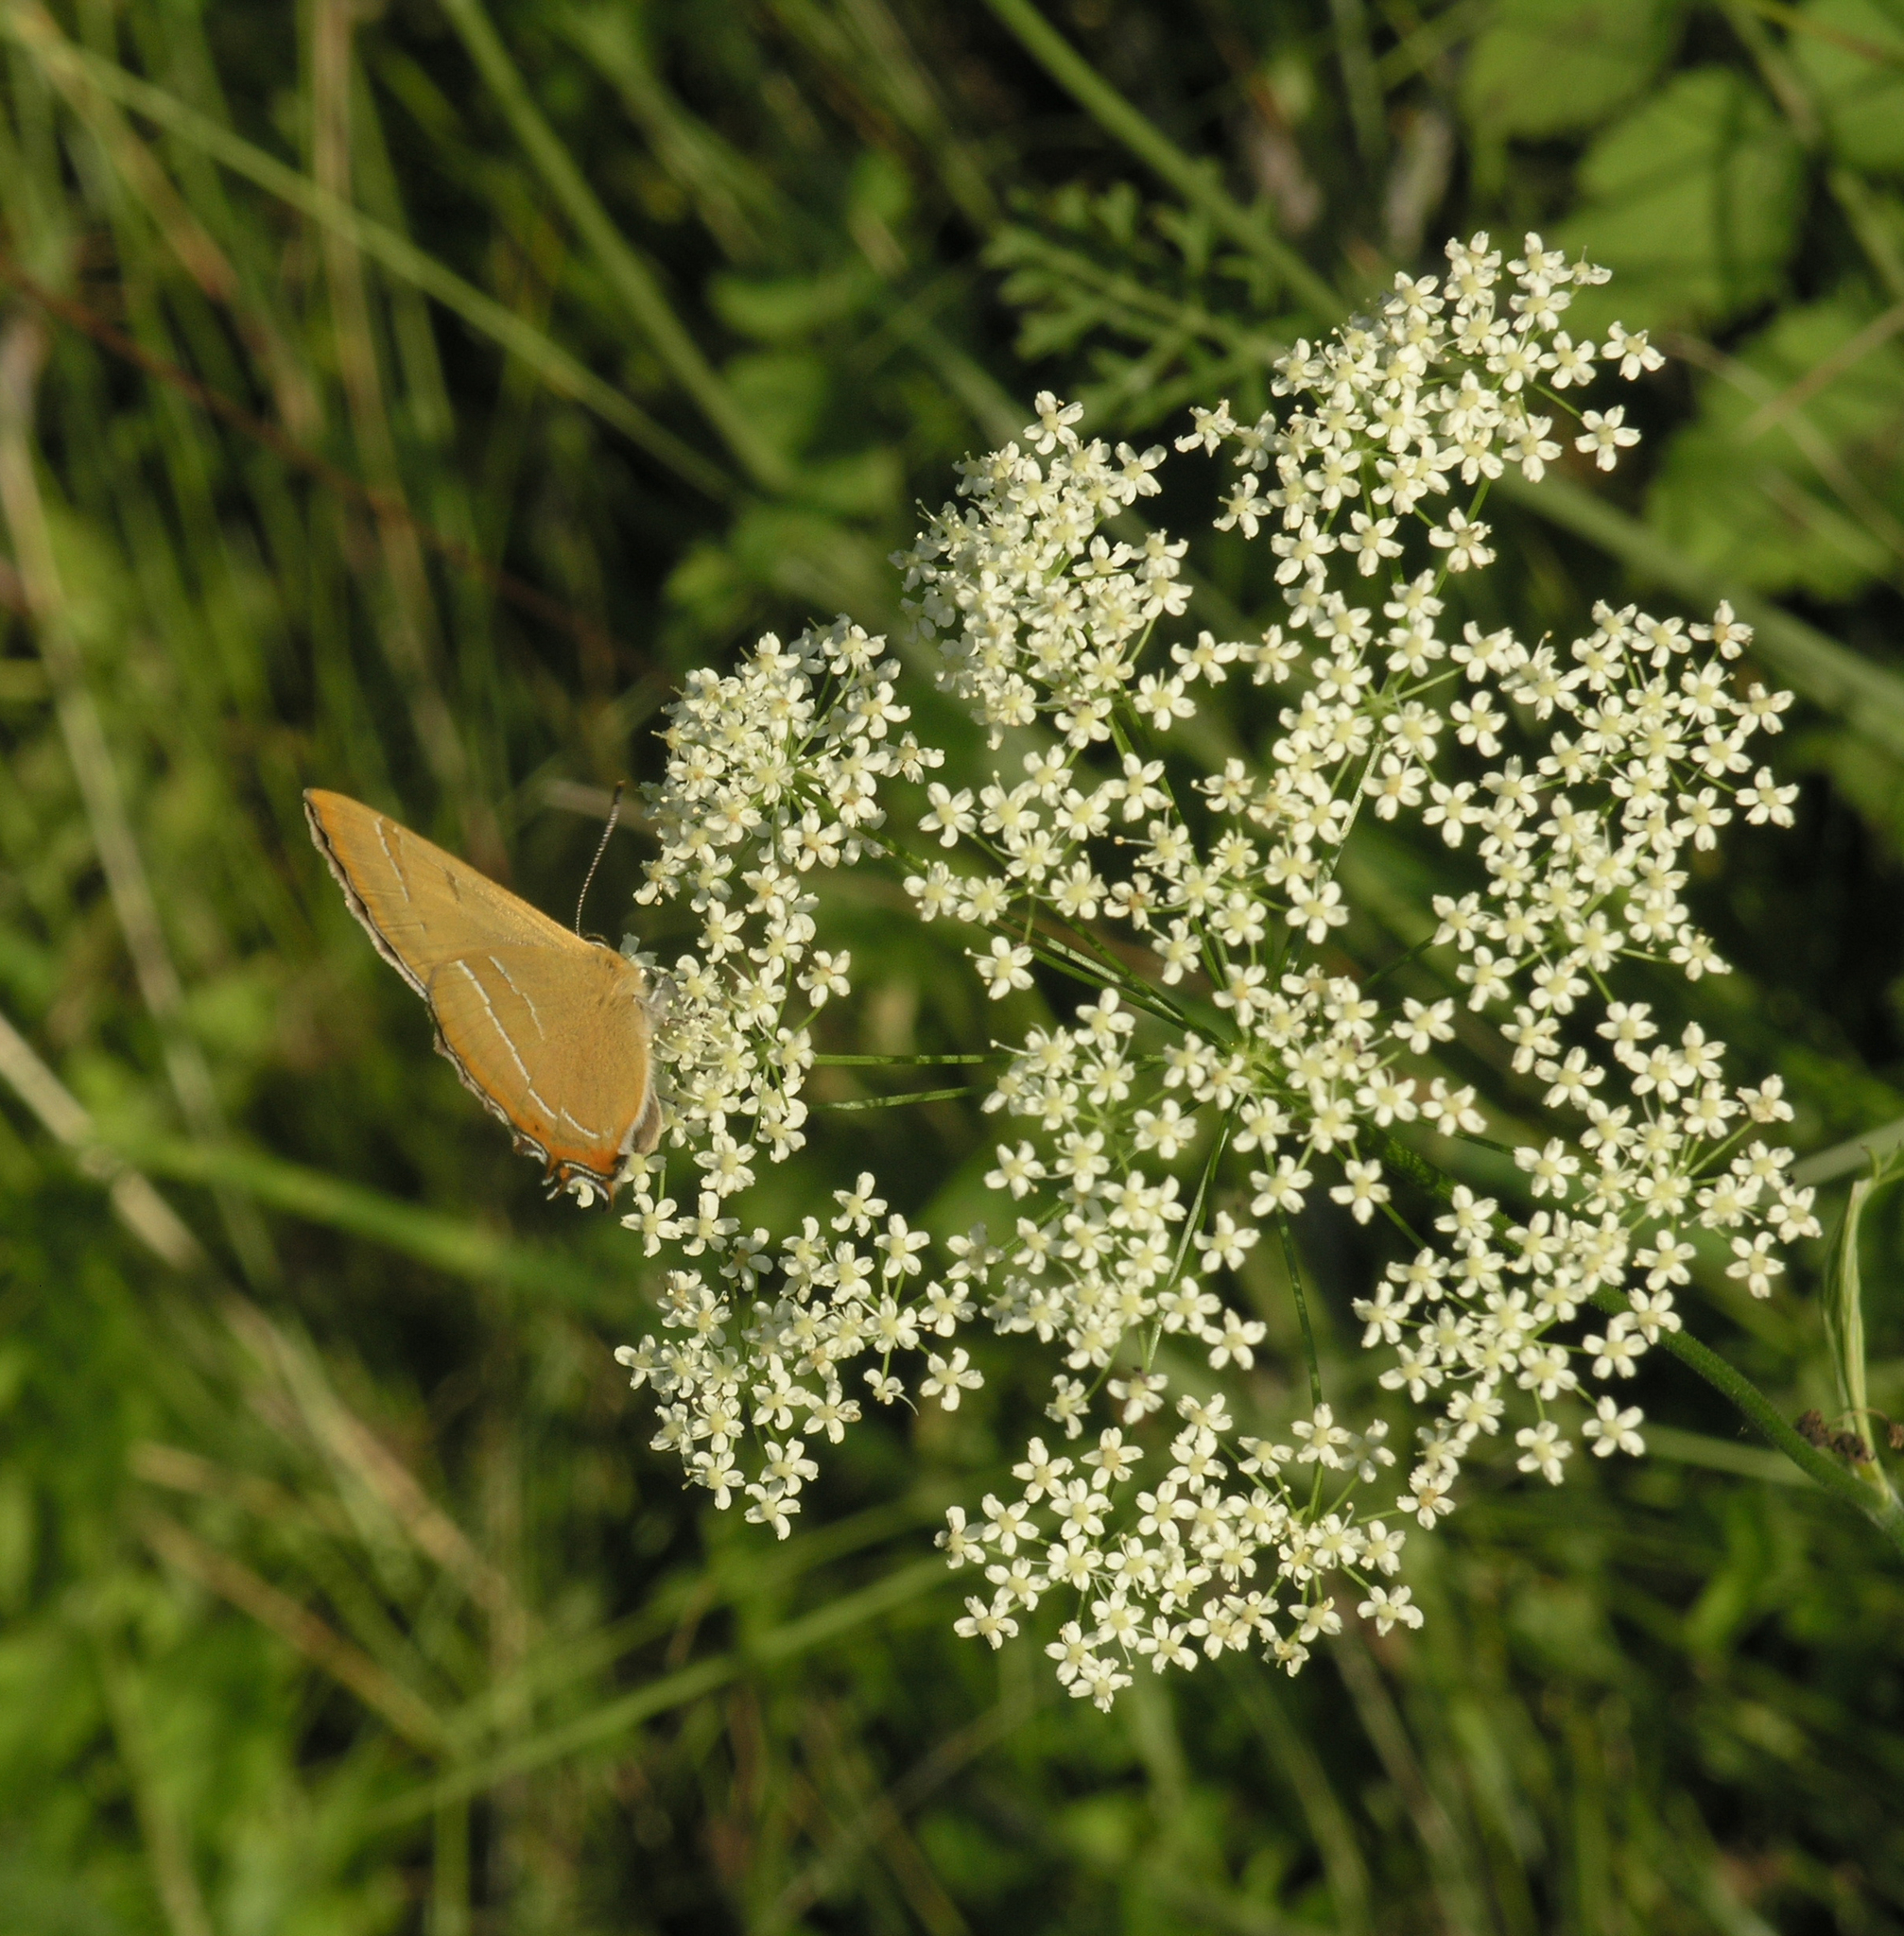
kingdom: Animalia
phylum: Arthropoda
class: Insecta
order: Lepidoptera
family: Lycaenidae
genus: Thecla
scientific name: Thecla betulae
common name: Brown hairstreak
